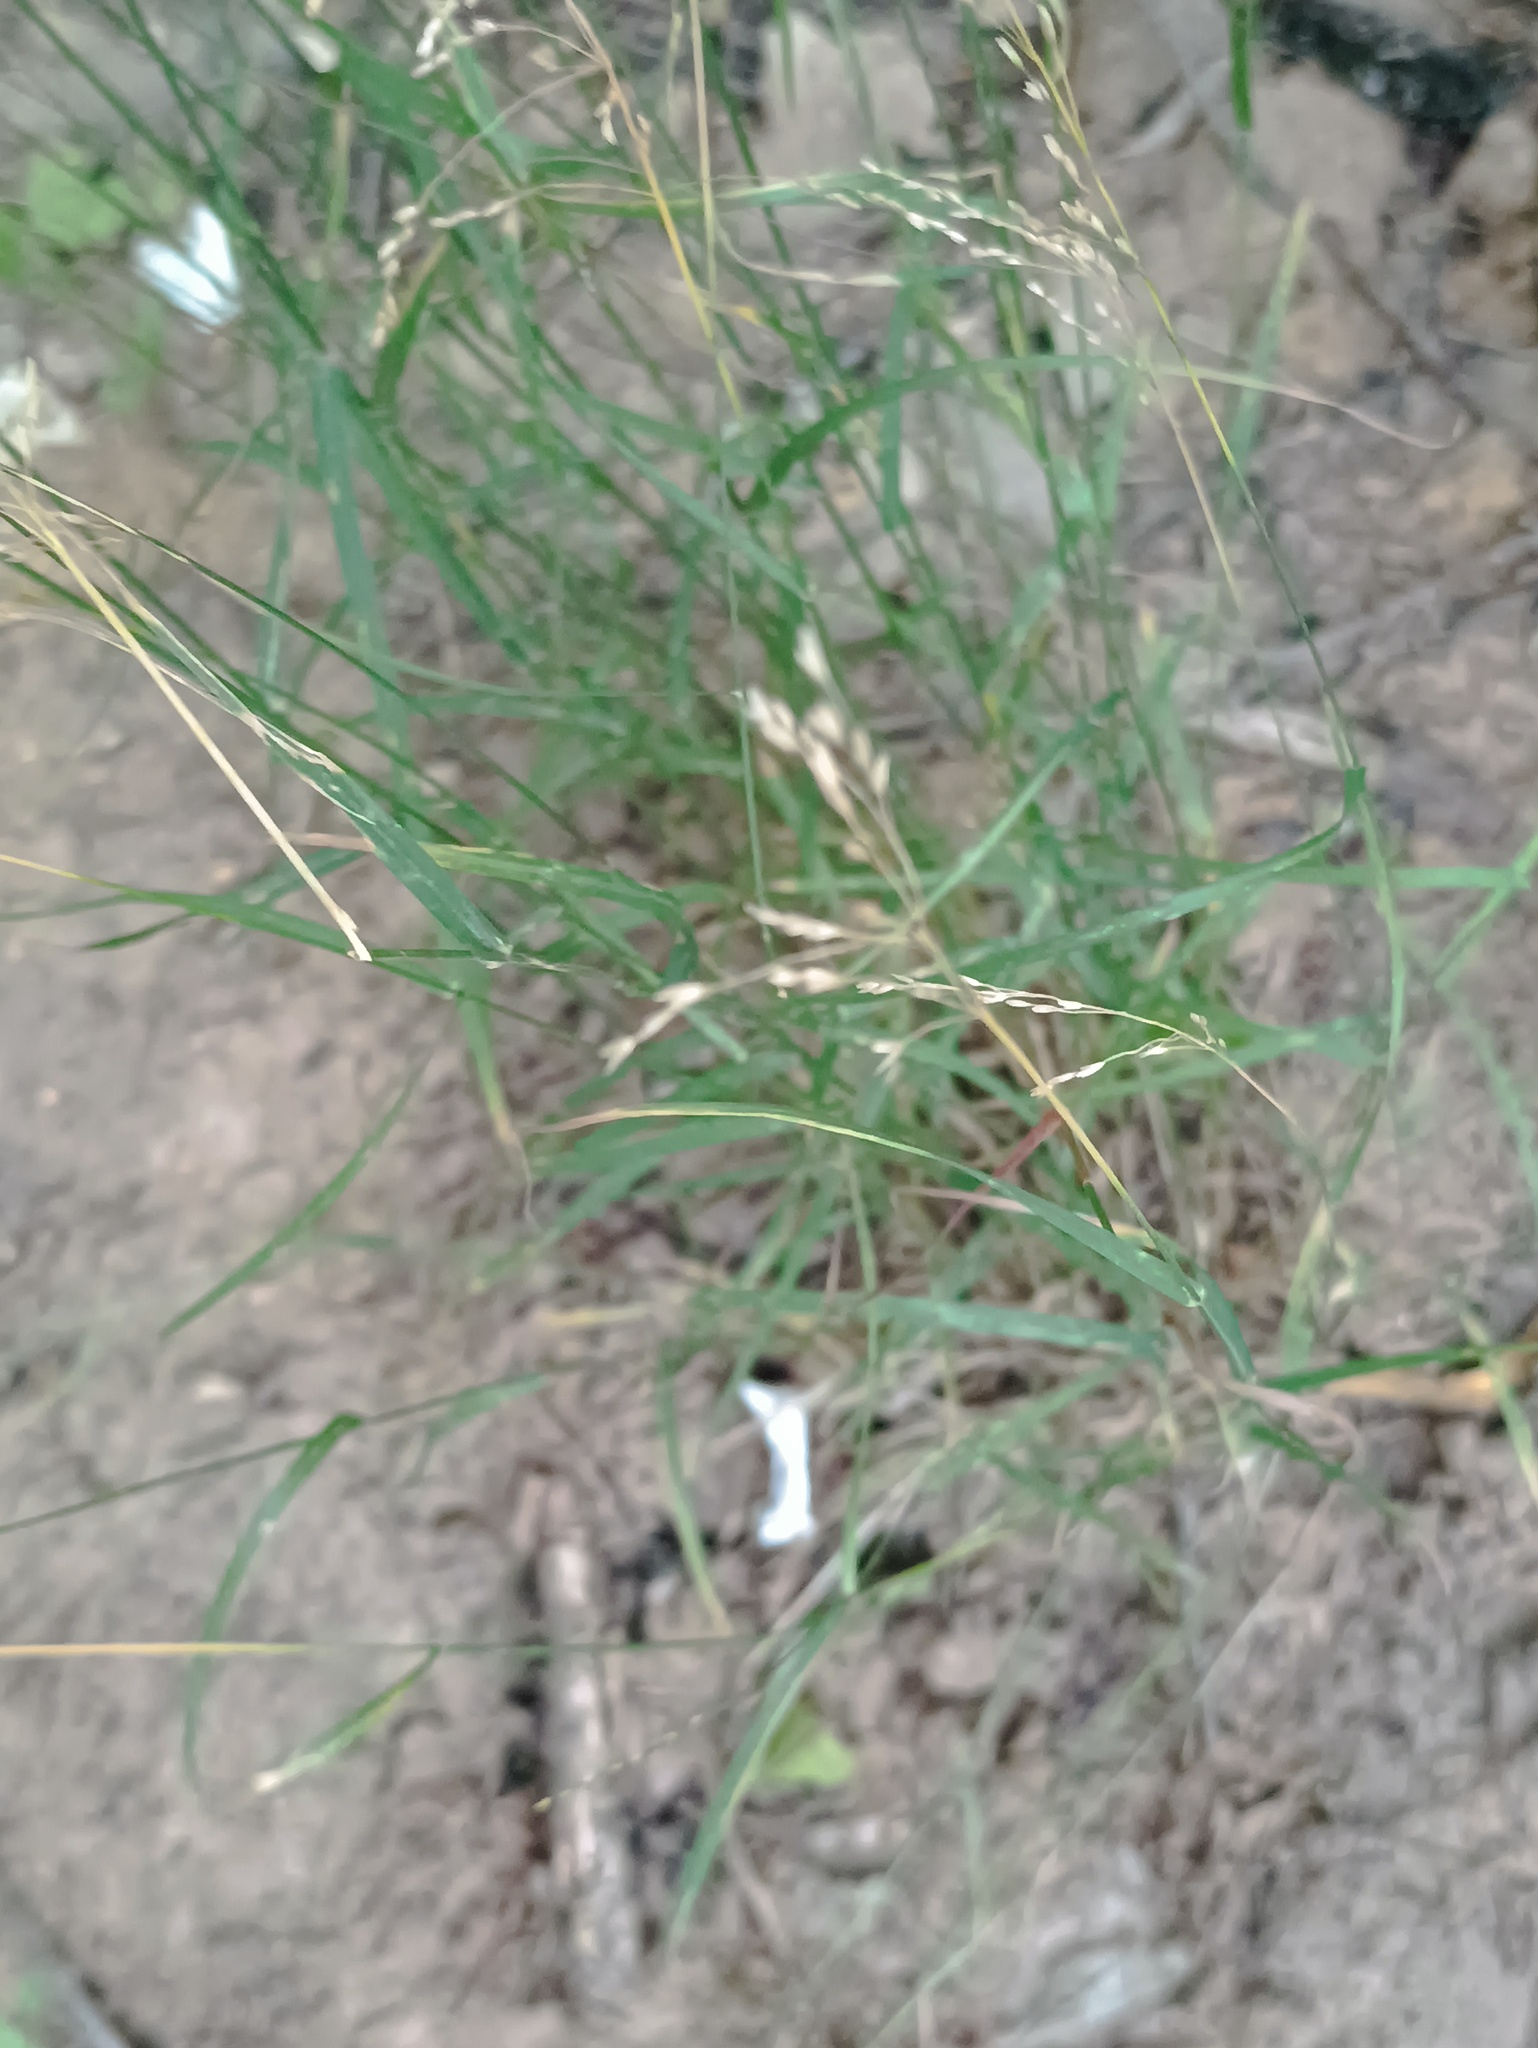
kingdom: Plantae
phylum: Tracheophyta
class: Liliopsida
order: Poales
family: Poaceae
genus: Poa
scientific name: Poa nemoralis
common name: Wood bluegrass
